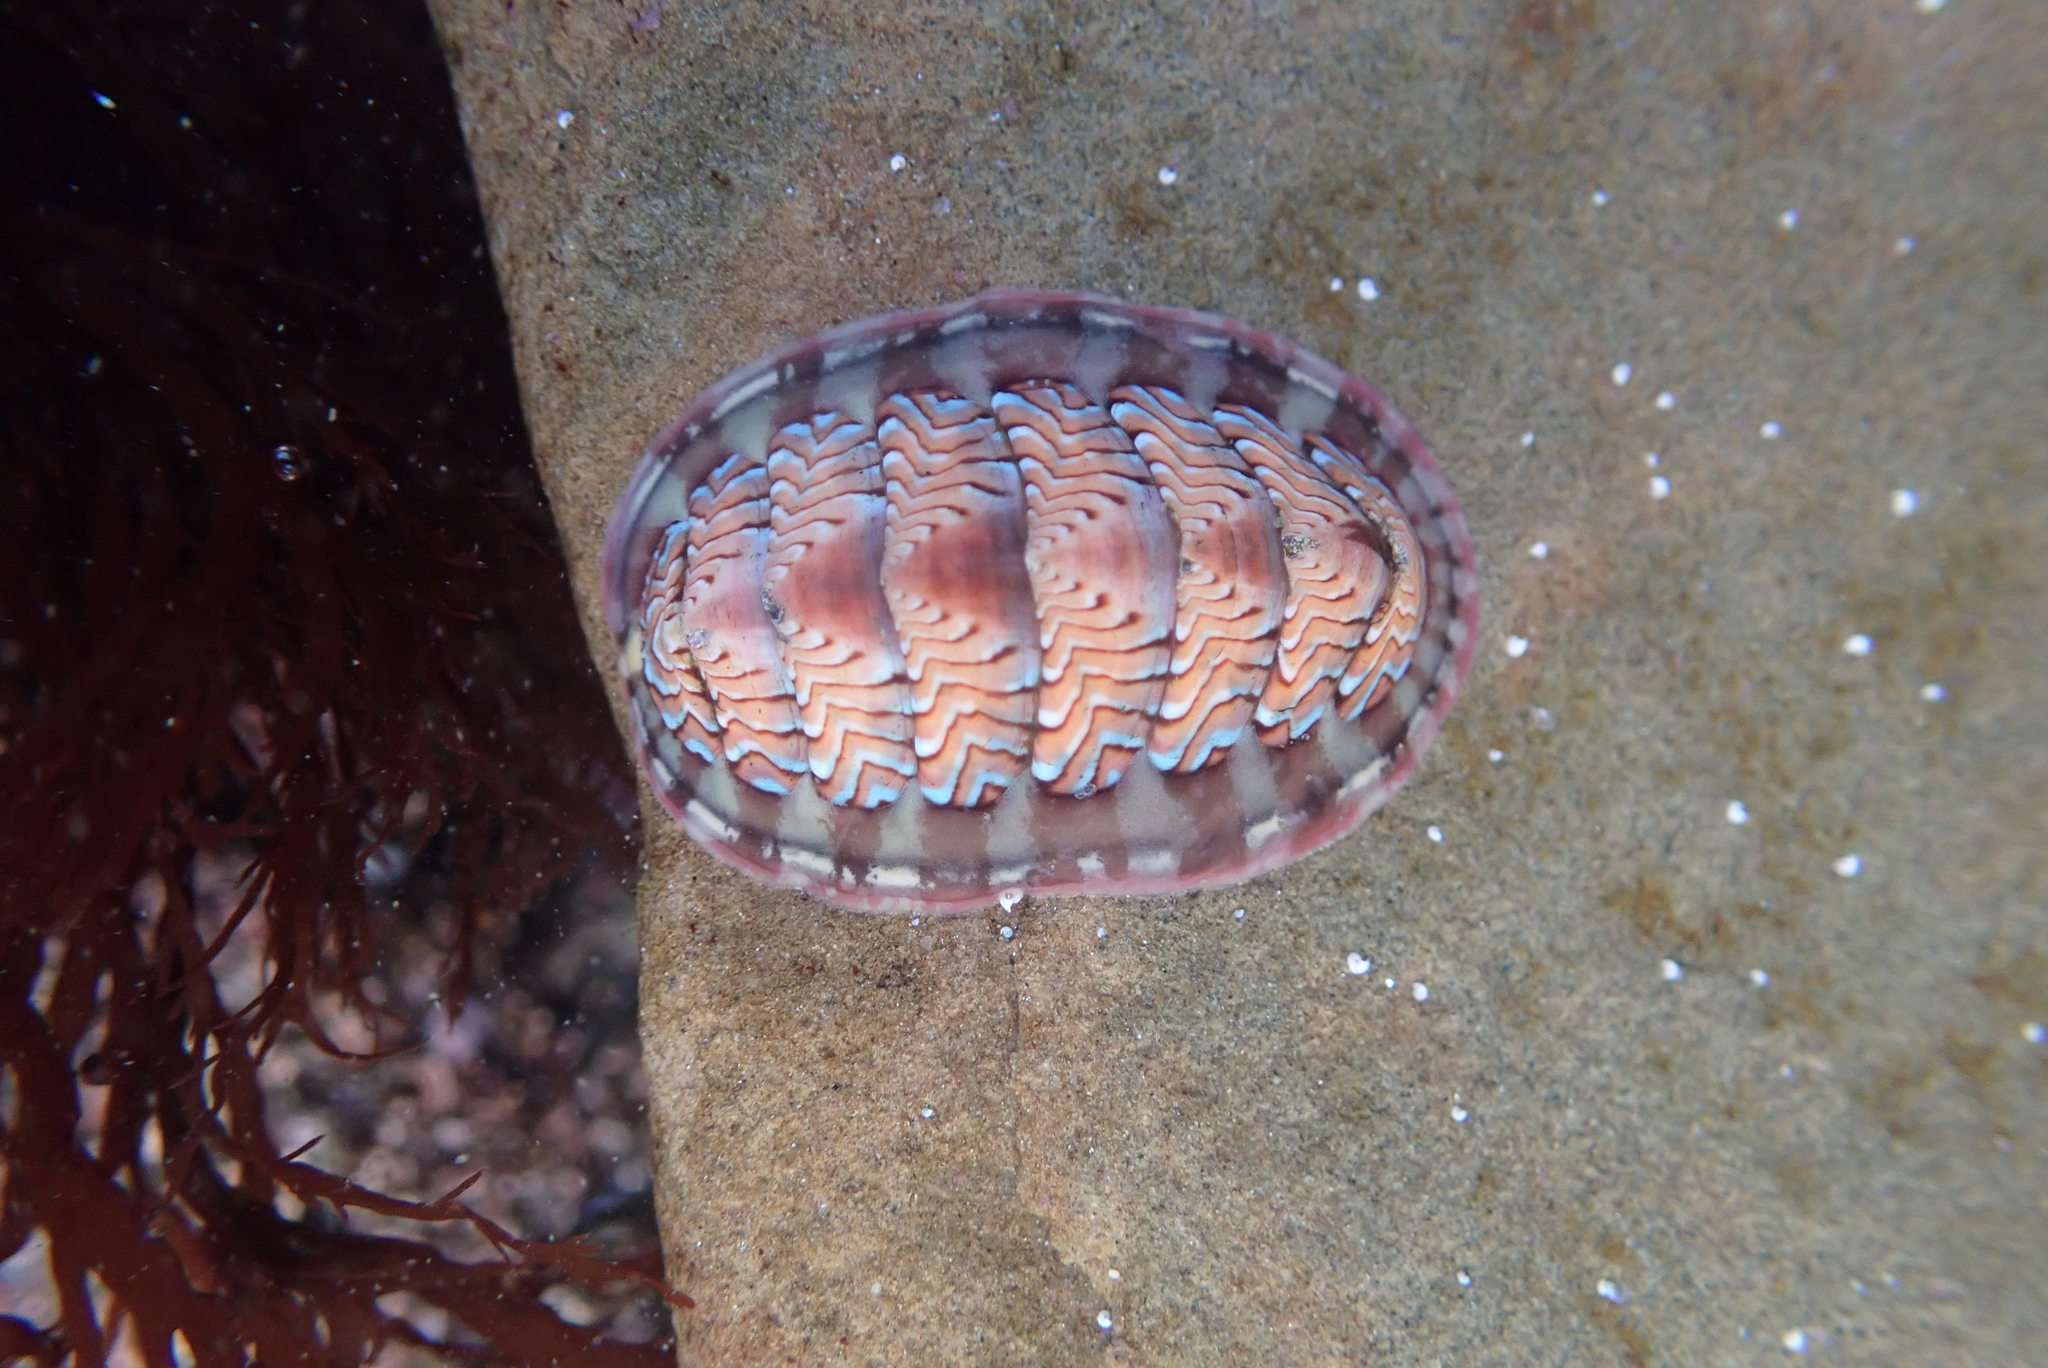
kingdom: Animalia
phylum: Mollusca
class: Polyplacophora
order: Chitonida
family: Tonicellidae
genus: Tonicella
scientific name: Tonicella lokii
